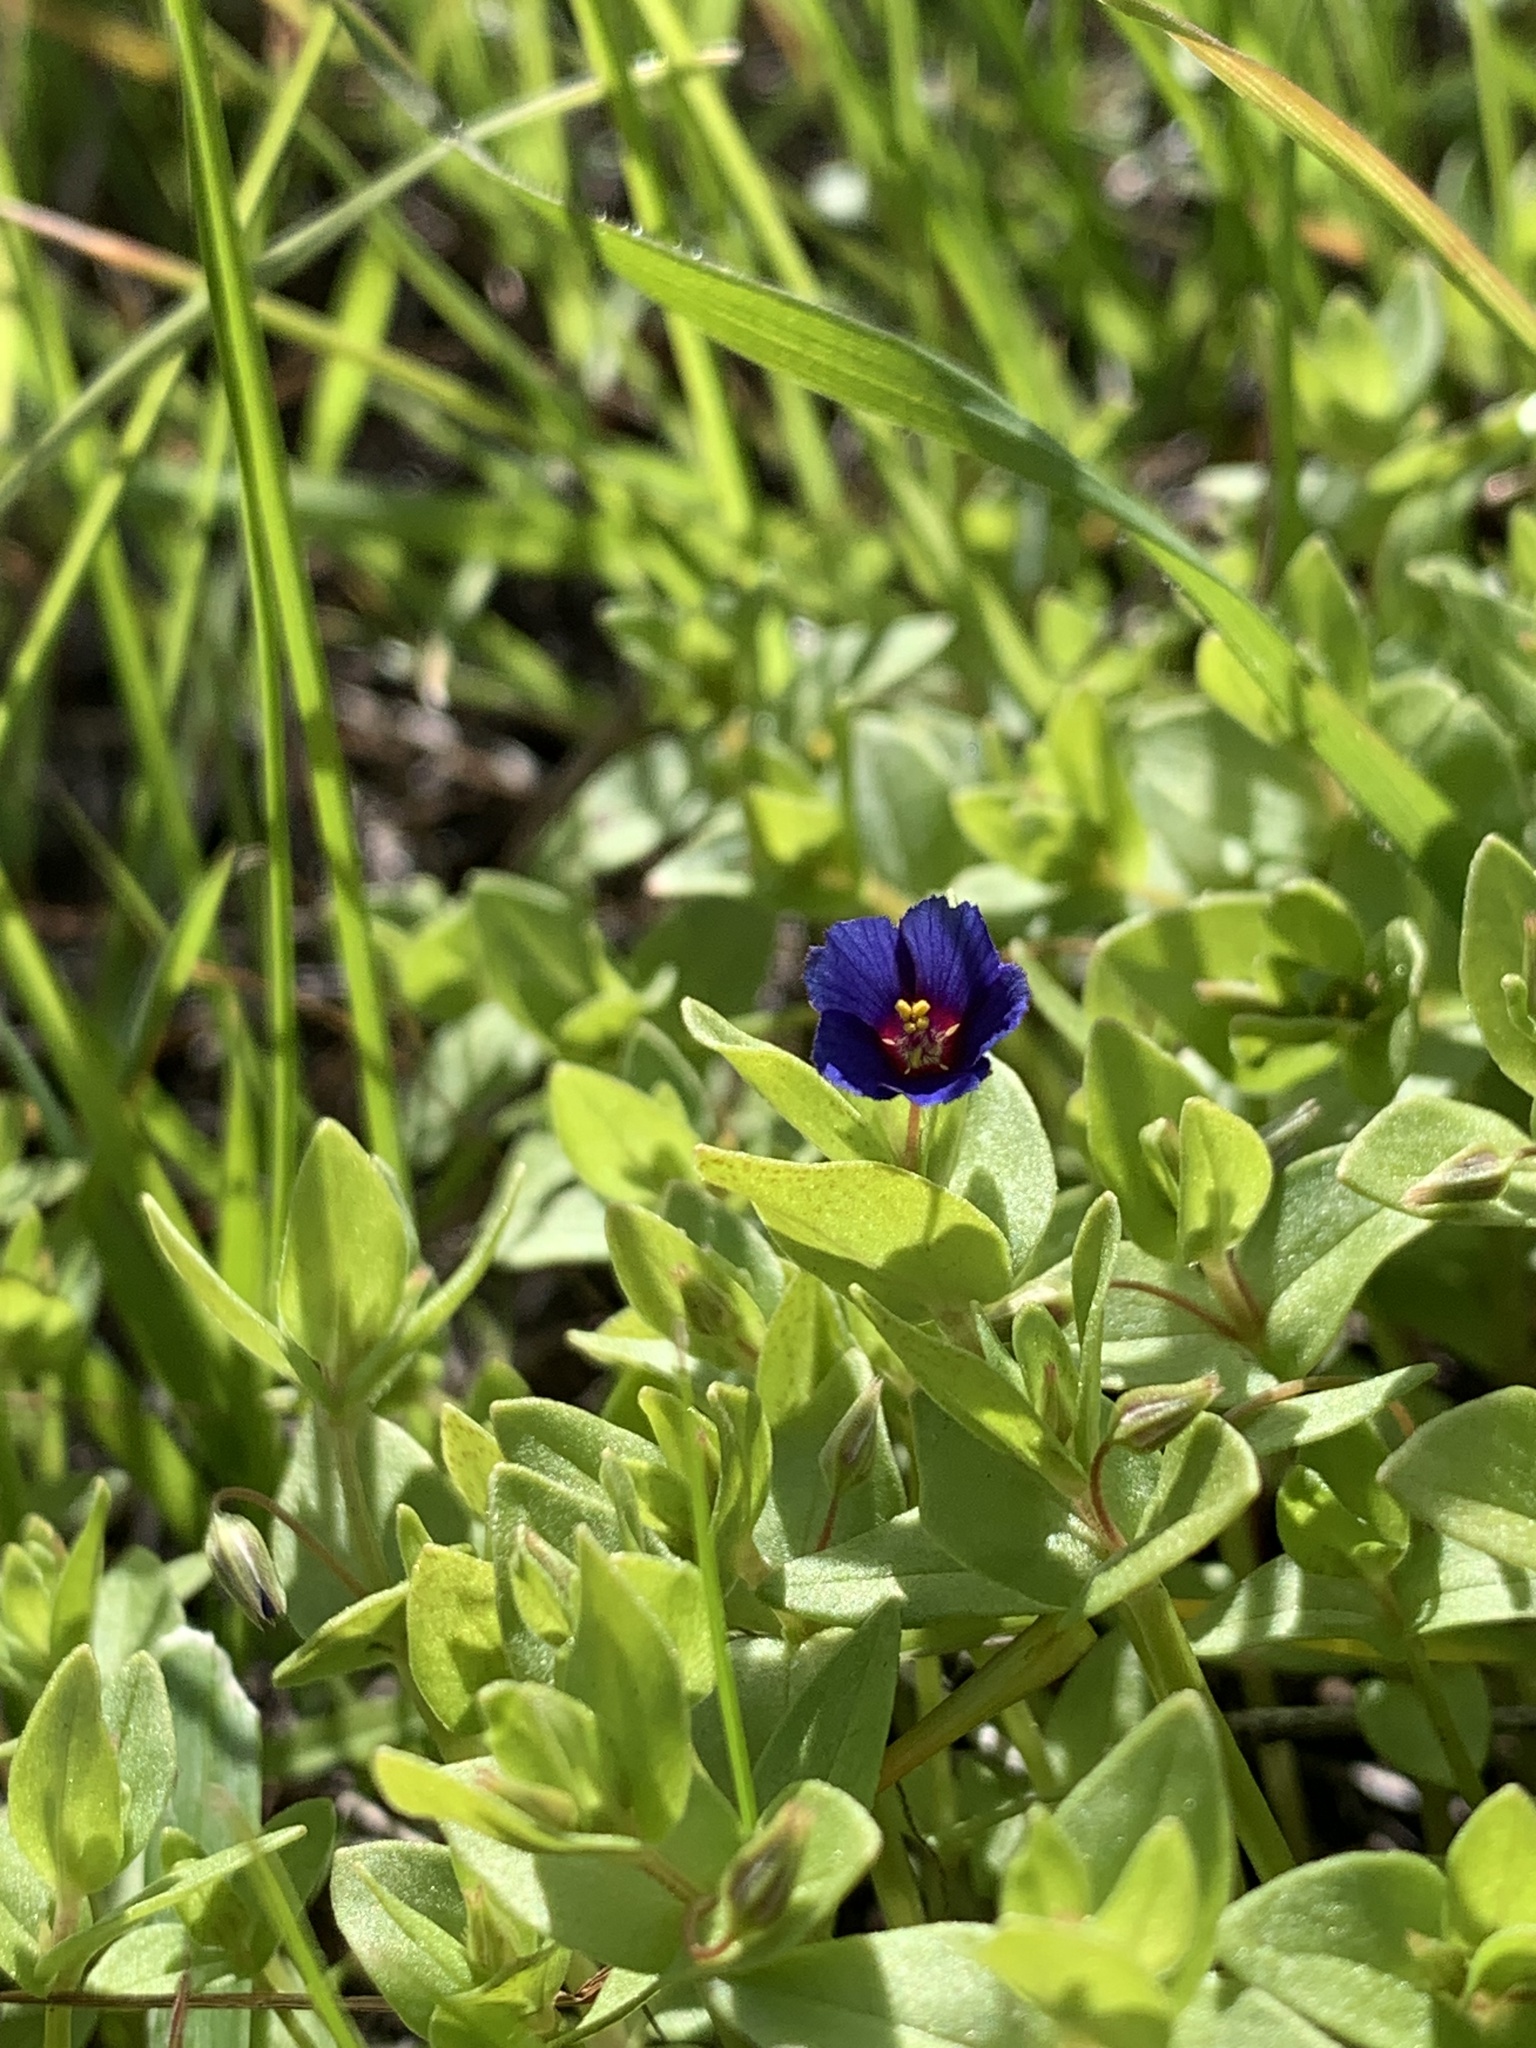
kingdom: Plantae
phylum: Tracheophyta
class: Magnoliopsida
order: Ericales
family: Primulaceae
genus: Lysimachia
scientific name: Lysimachia loeflingii
